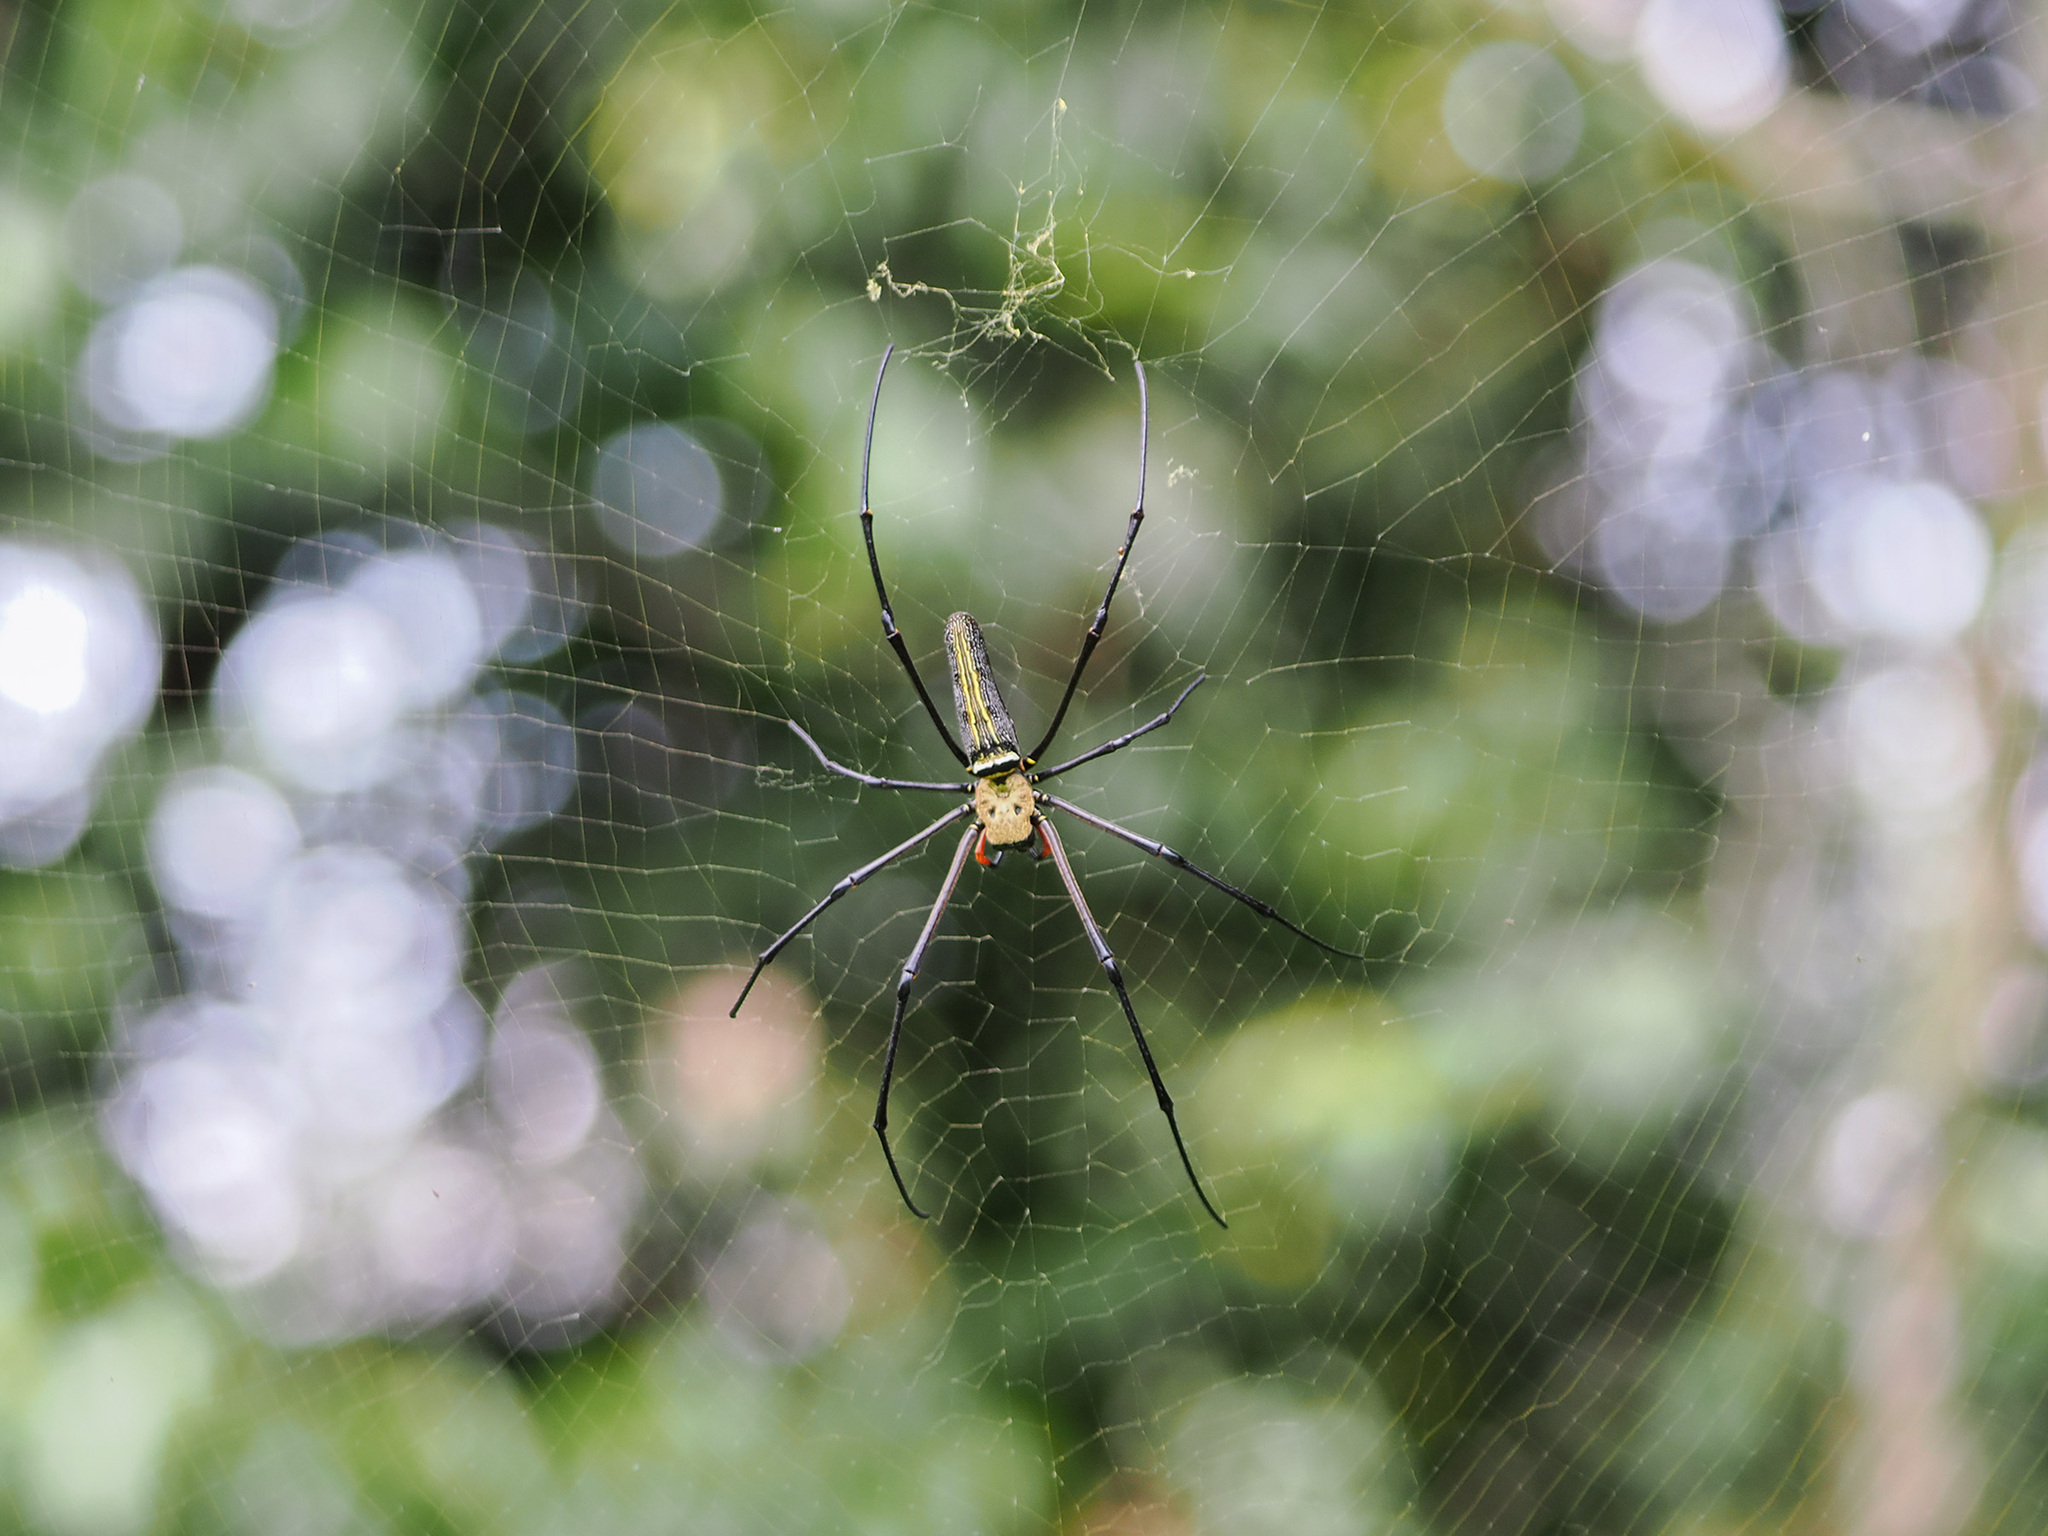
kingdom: Animalia
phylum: Arthropoda
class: Arachnida
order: Araneae
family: Araneidae
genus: Nephila
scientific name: Nephila pilipes
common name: Giant golden orb weaver
